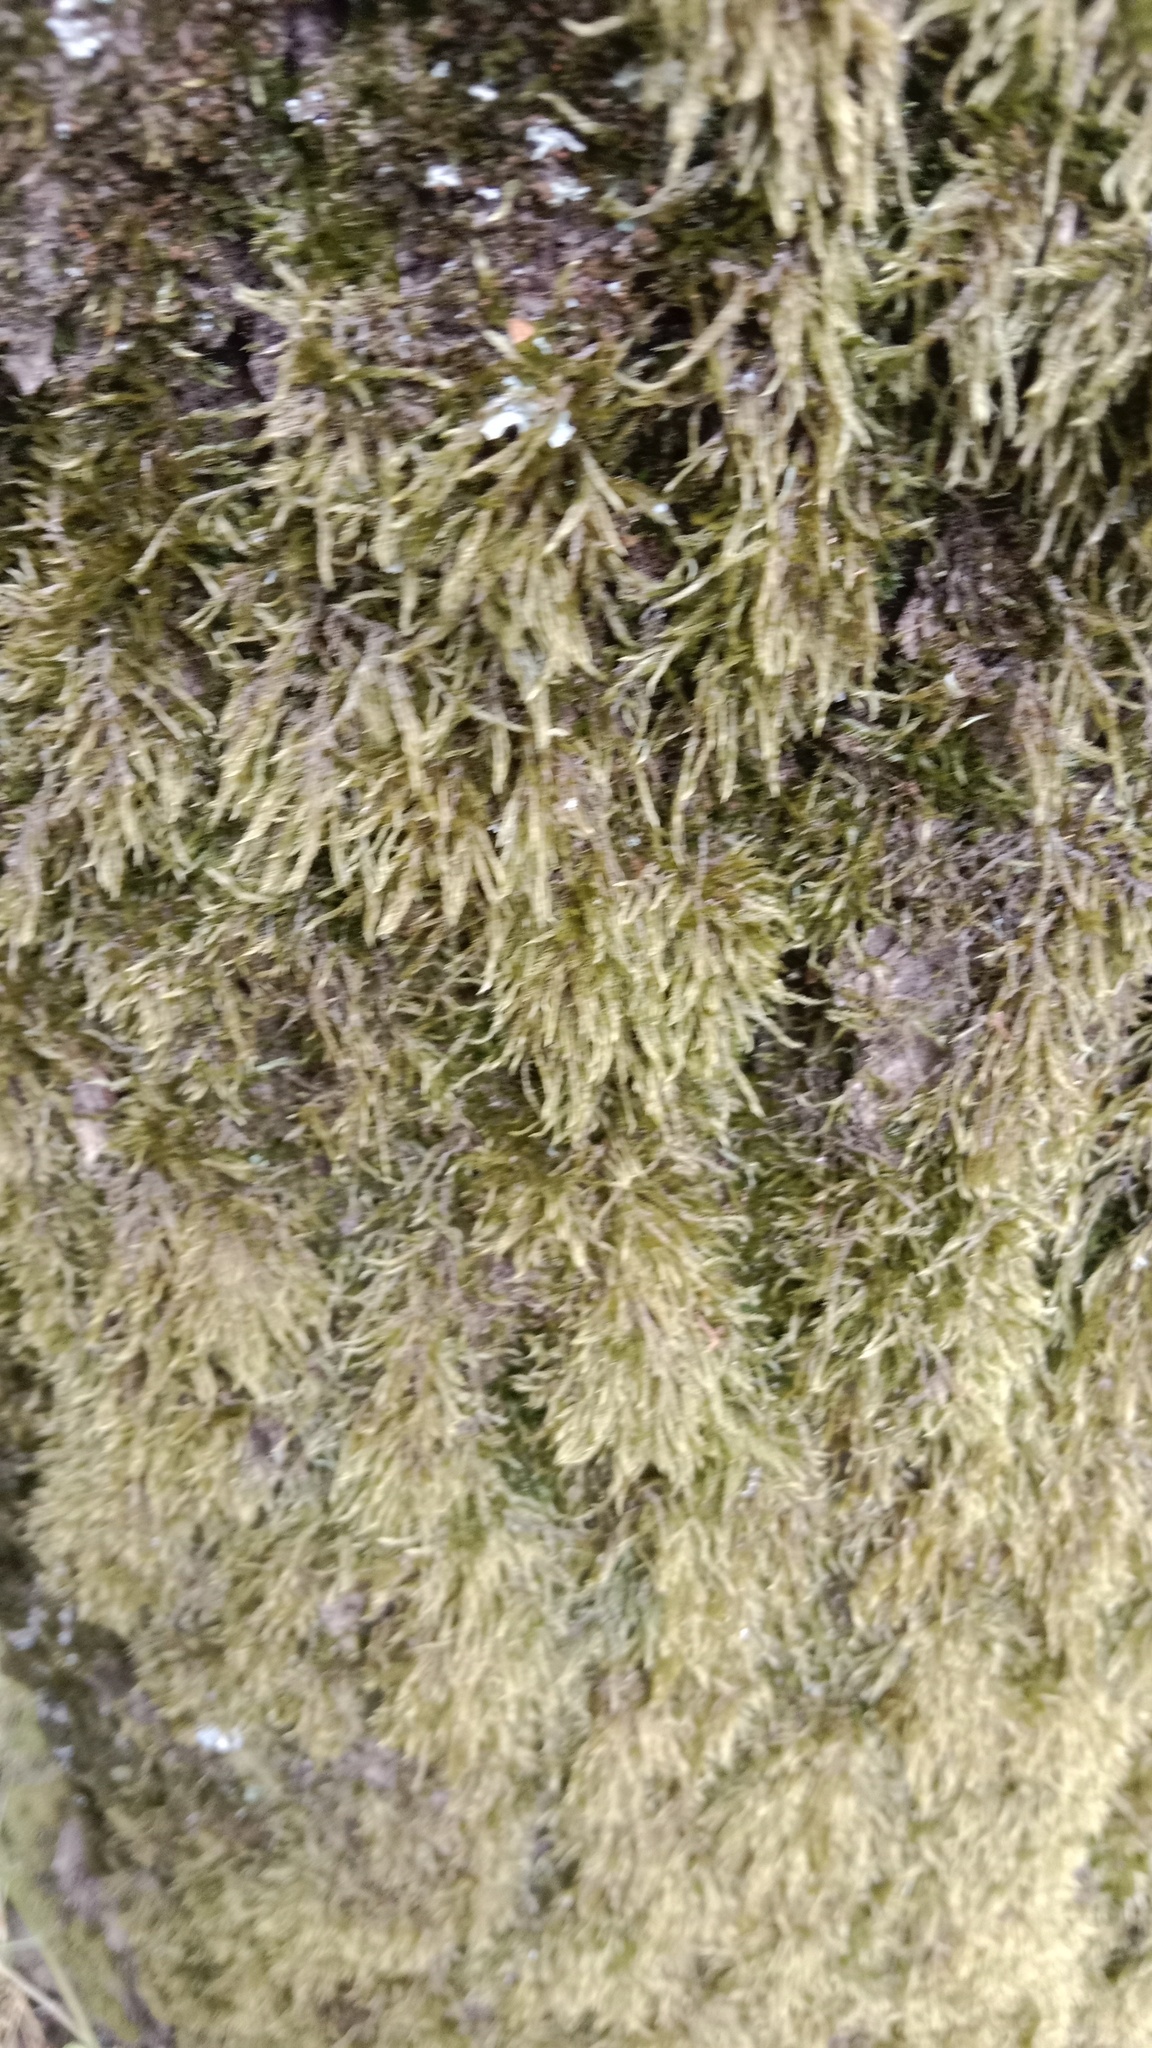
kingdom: Plantae
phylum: Bryophyta
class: Bryopsida
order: Hypnales
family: Hypnaceae
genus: Hypnum
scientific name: Hypnum cupressiforme
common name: Cypress-leaved plait-moss
